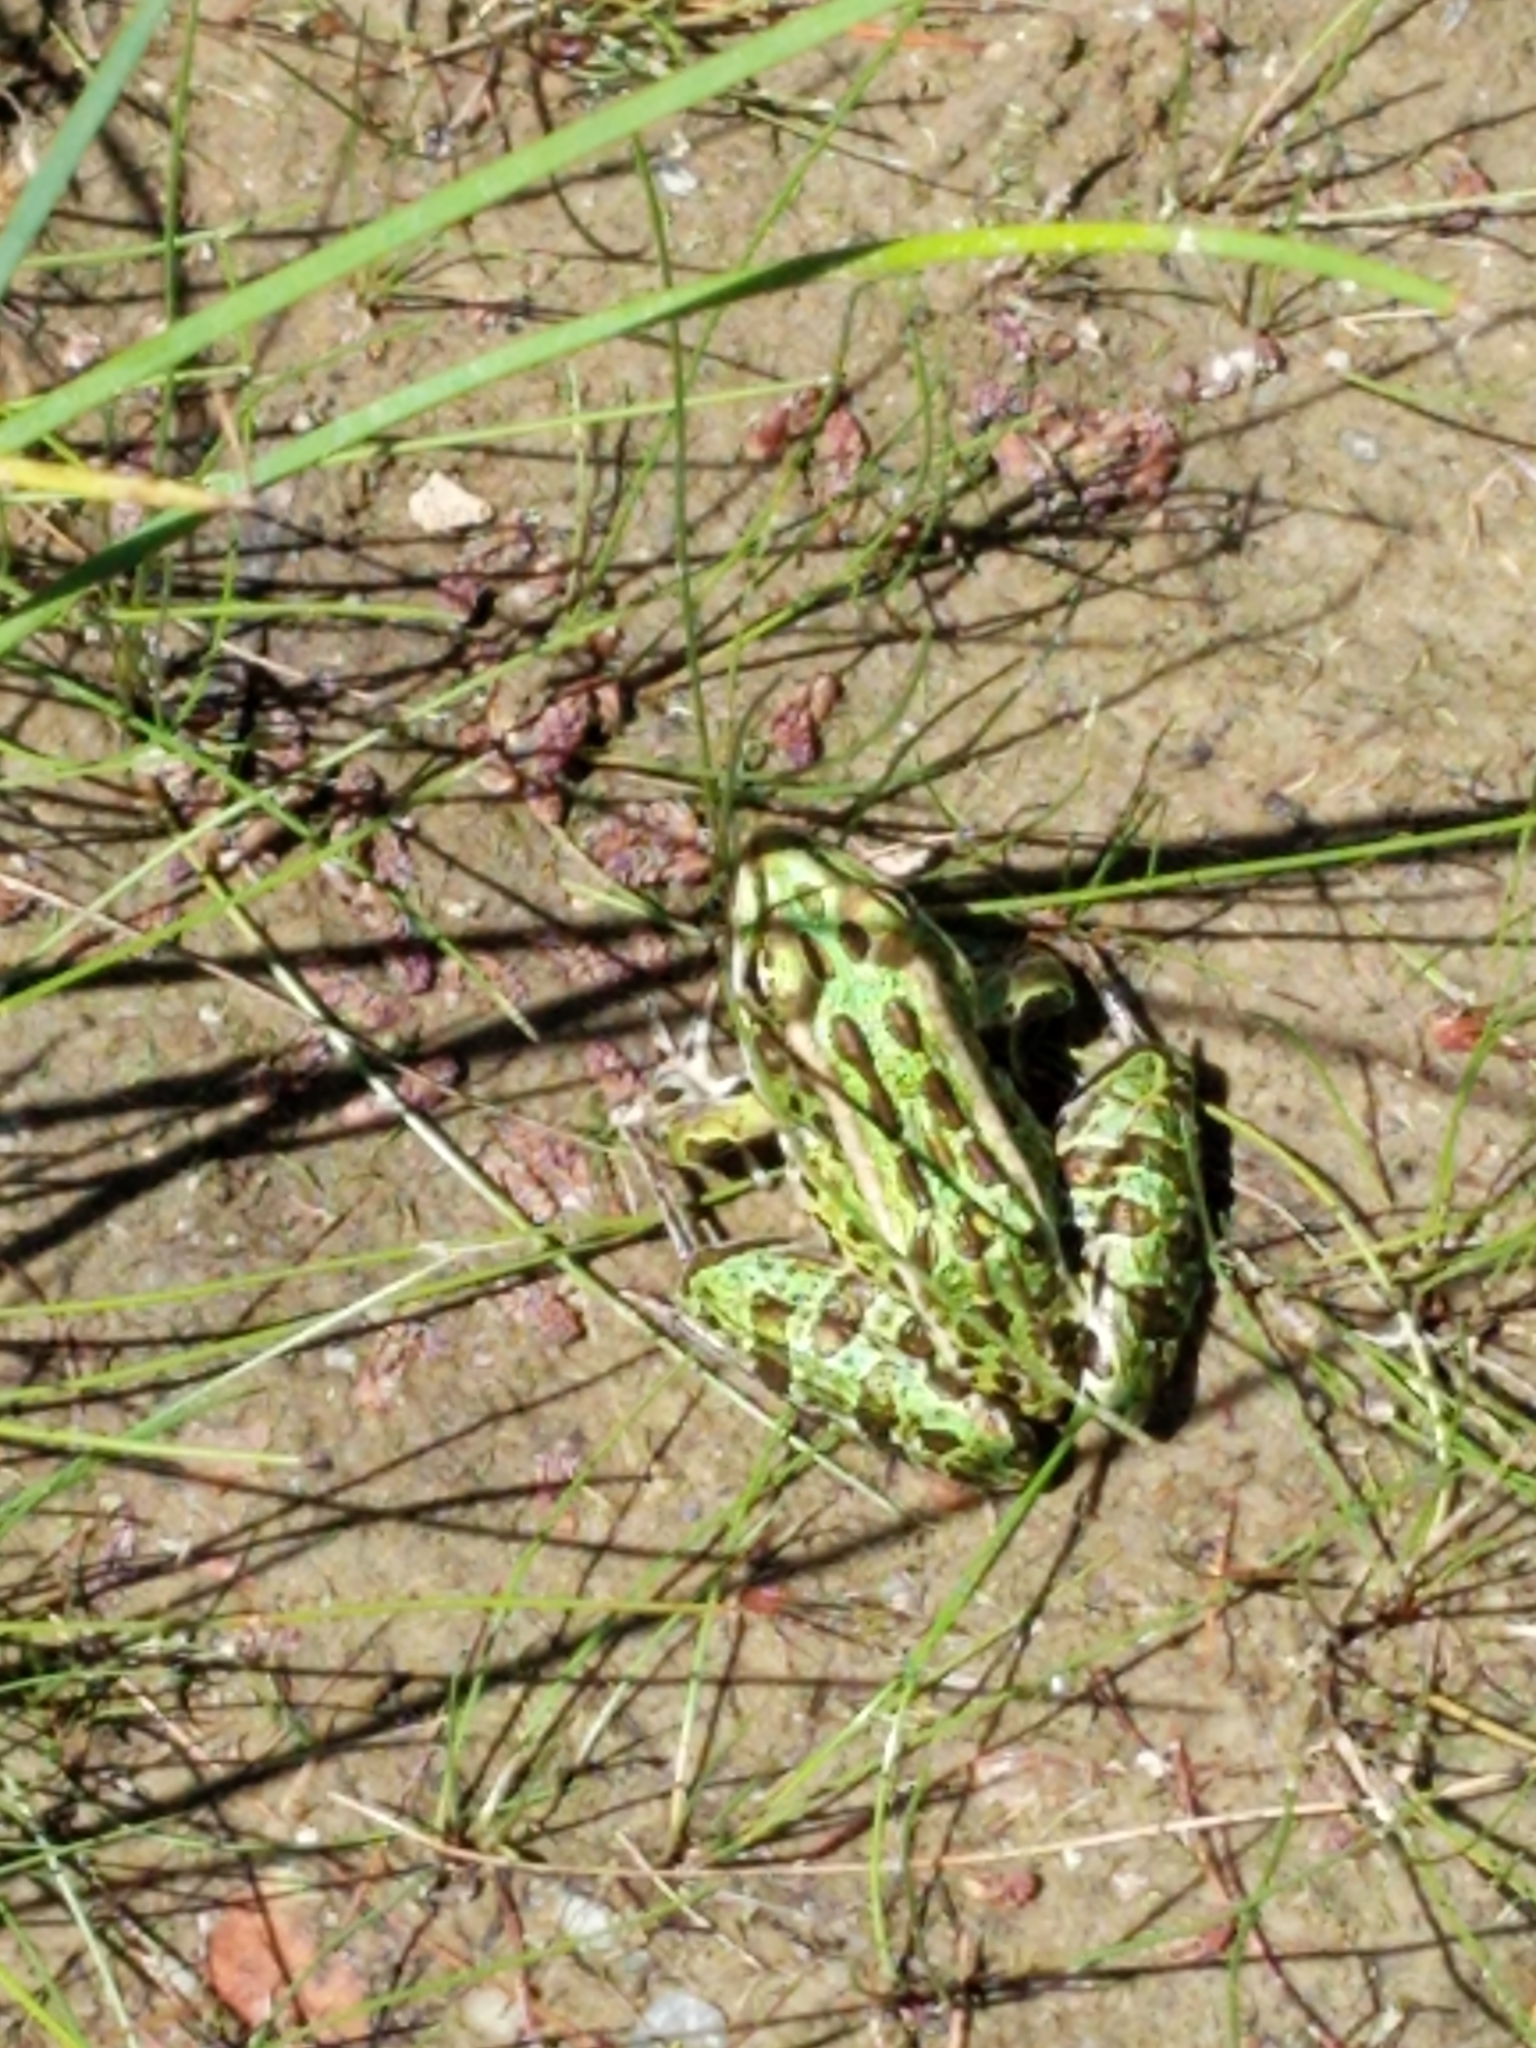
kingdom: Animalia
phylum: Chordata
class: Amphibia
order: Anura
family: Ranidae
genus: Lithobates
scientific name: Lithobates pipiens
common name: Northern leopard frog
